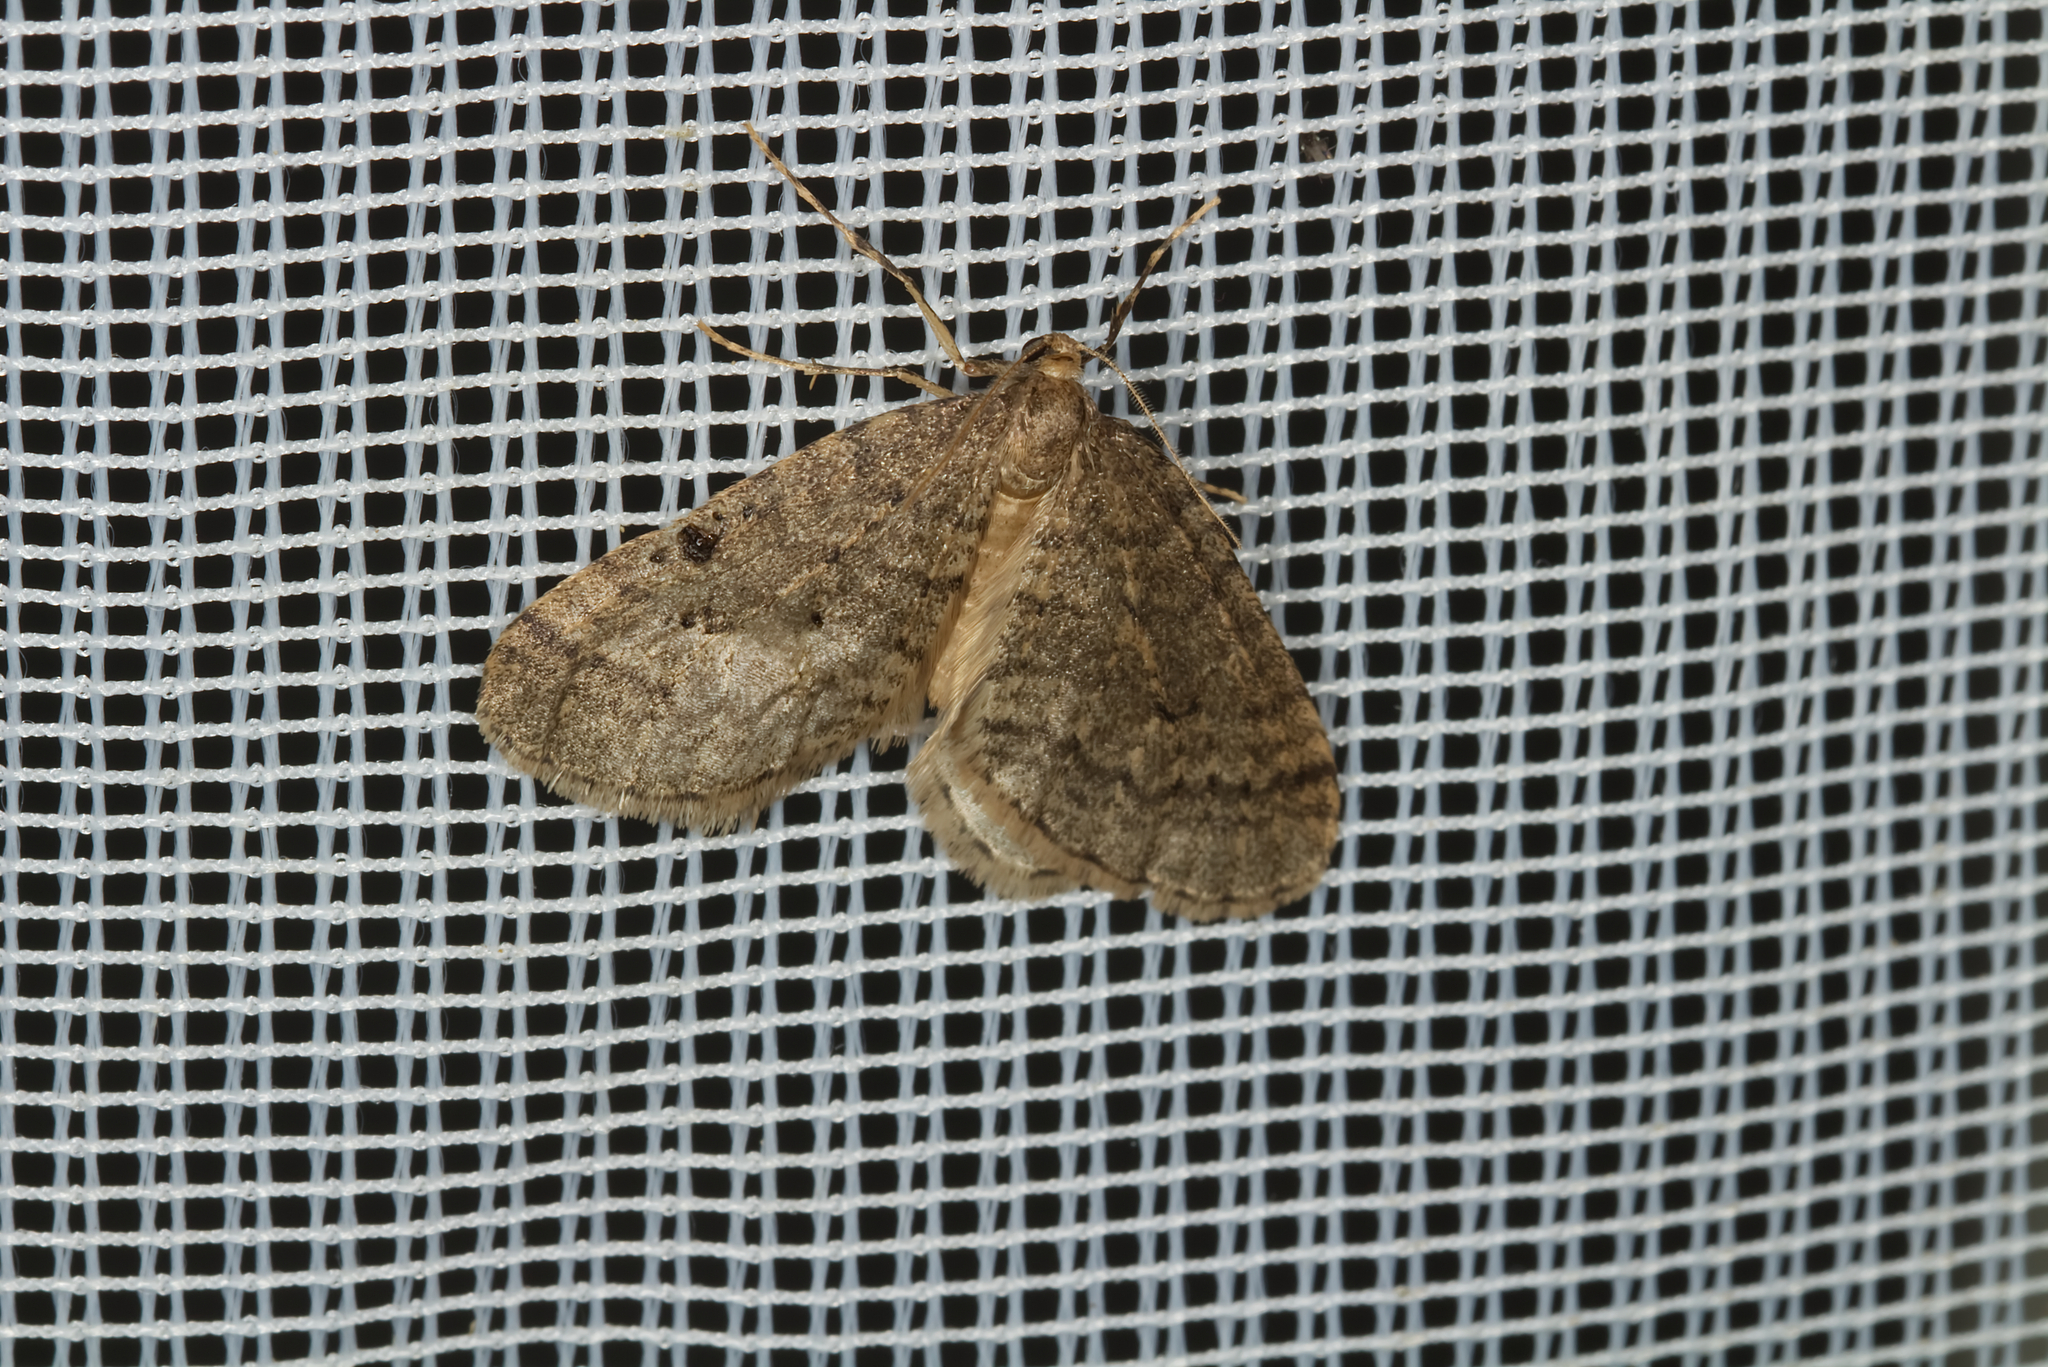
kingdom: Animalia
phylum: Arthropoda
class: Insecta
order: Lepidoptera
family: Geometridae
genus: Operophtera
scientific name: Operophtera brumata
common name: Winter moth
